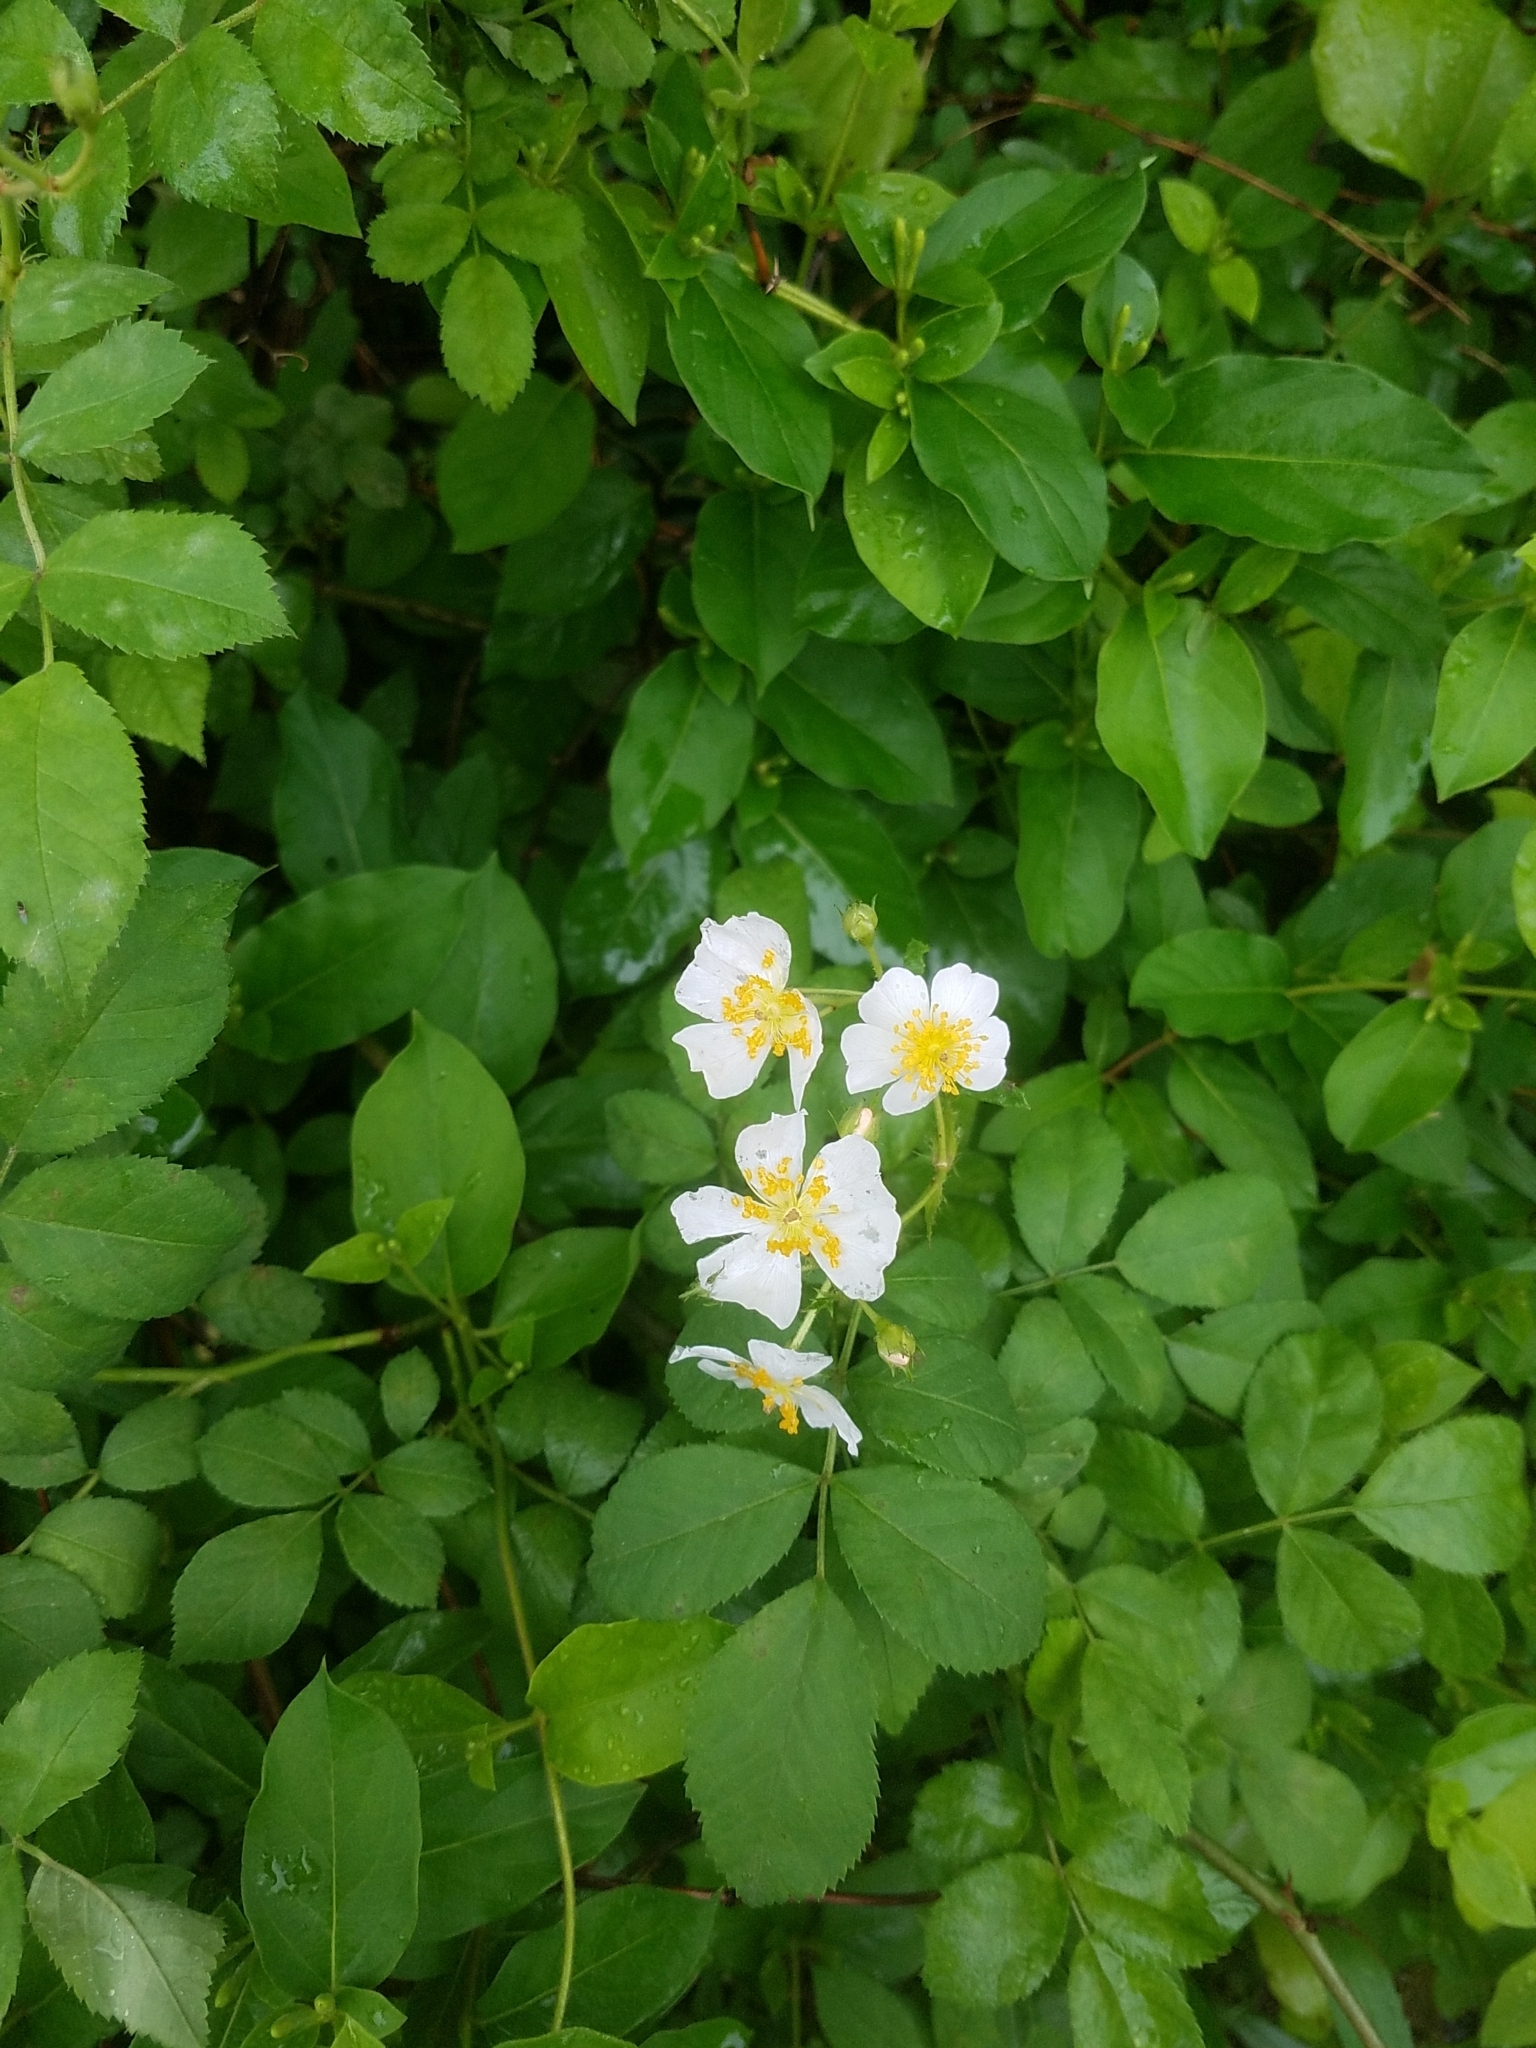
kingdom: Plantae
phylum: Tracheophyta
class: Magnoliopsida
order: Rosales
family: Rosaceae
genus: Rosa
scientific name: Rosa multiflora
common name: Multiflora rose
